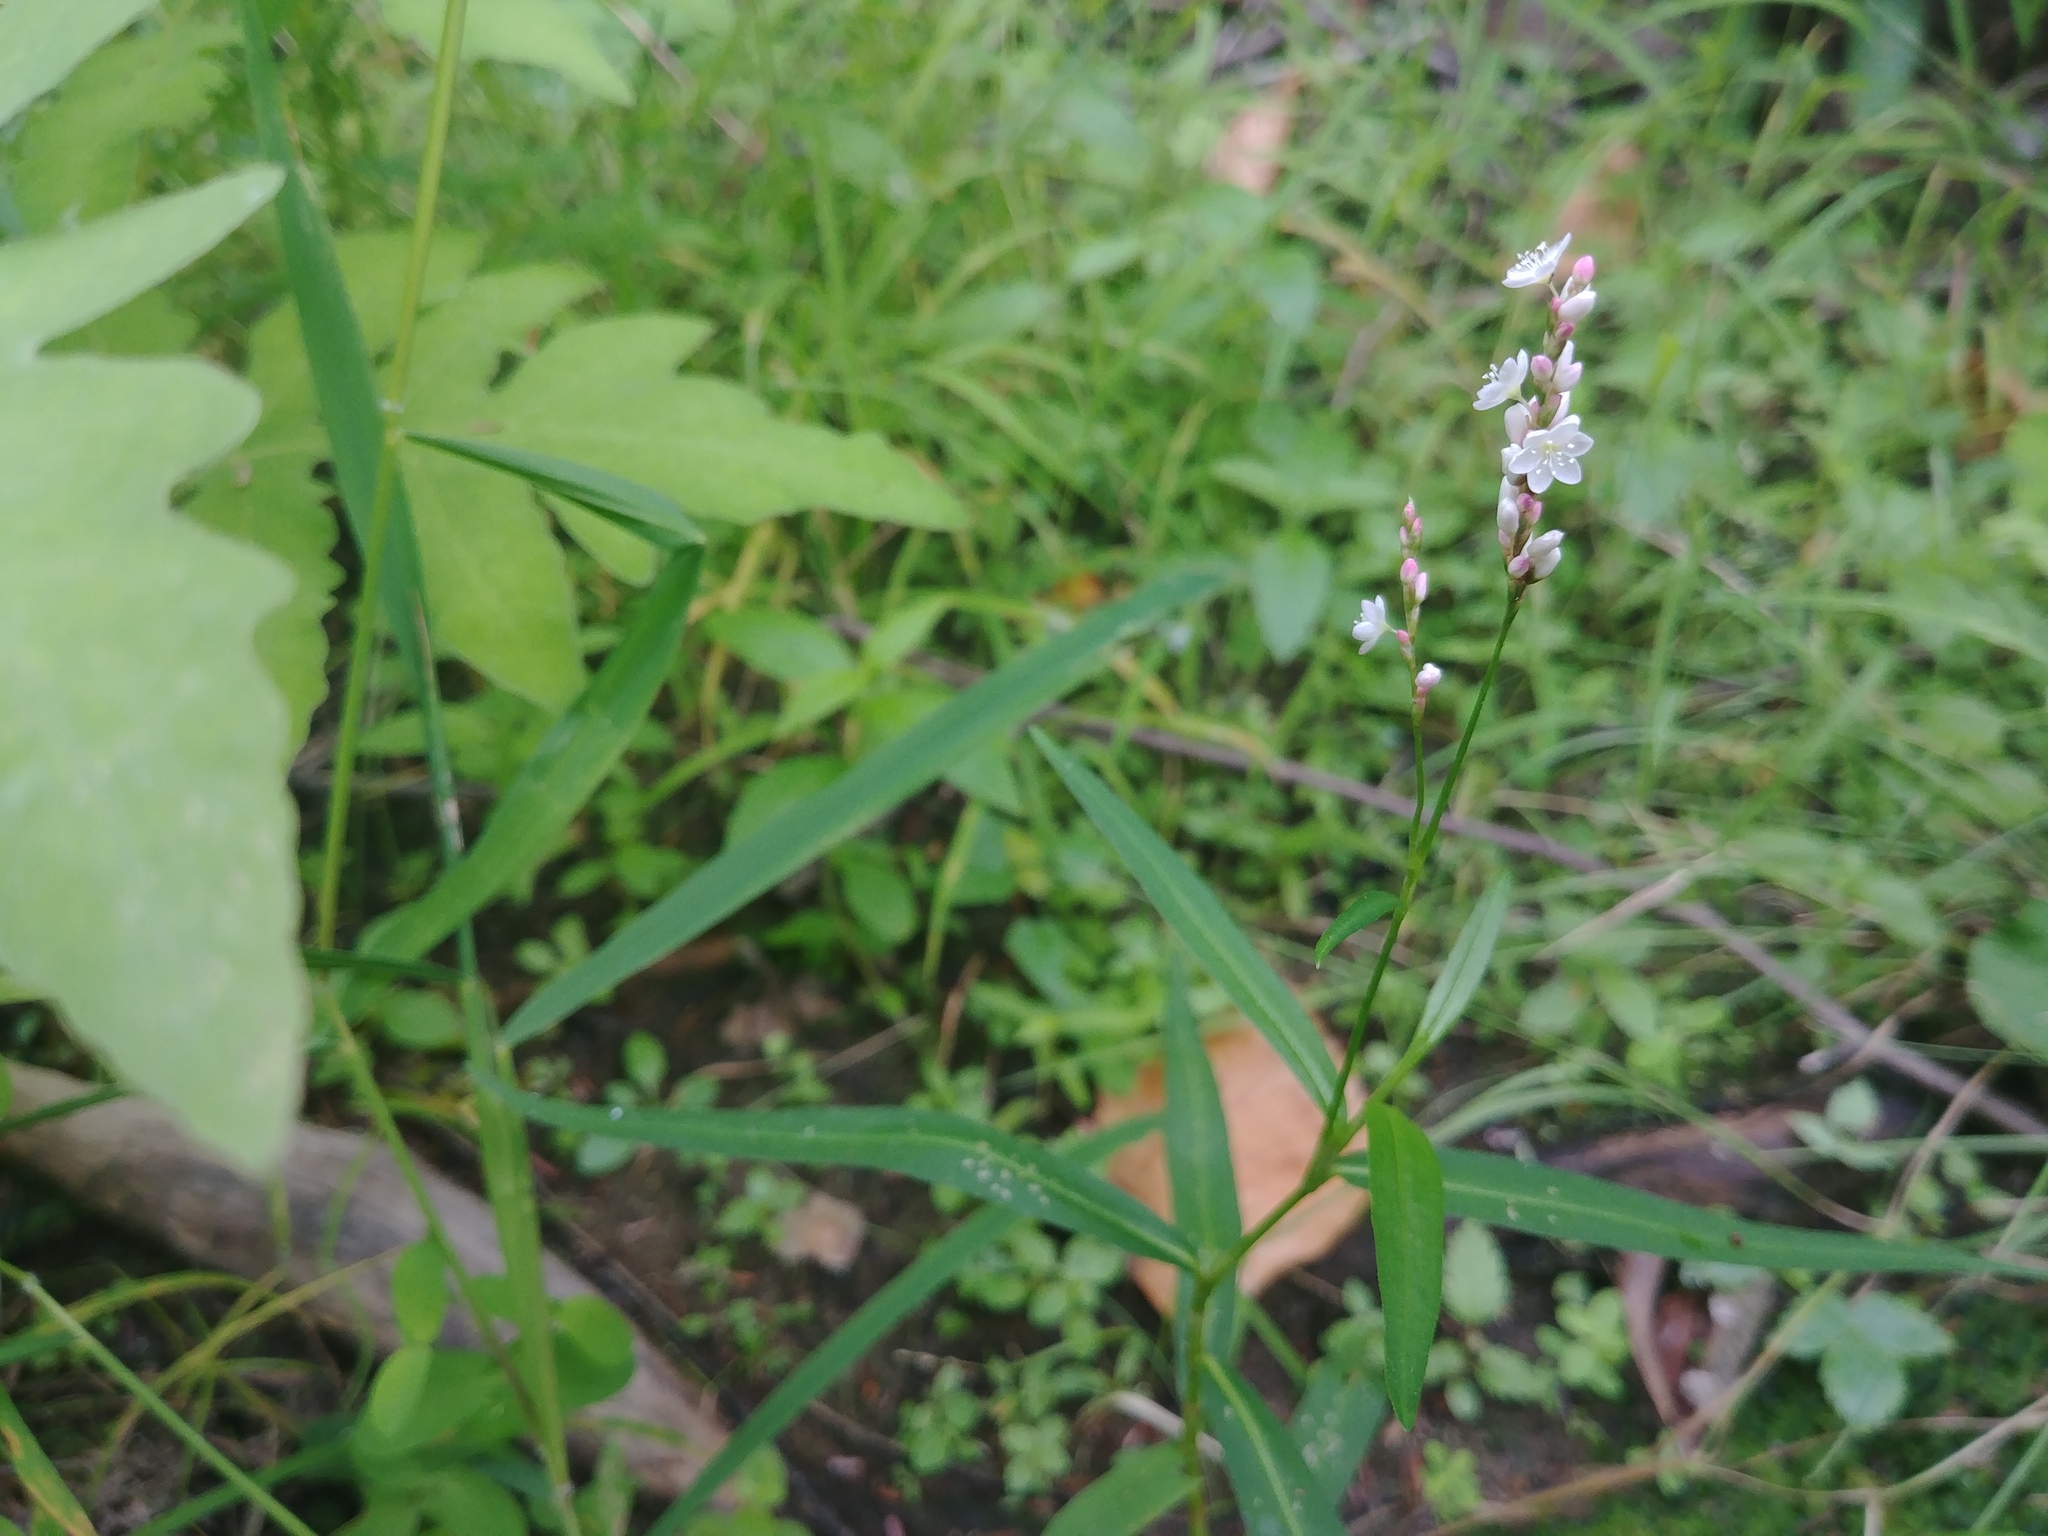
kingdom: Plantae
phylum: Tracheophyta
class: Magnoliopsida
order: Caryophyllales
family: Polygonaceae
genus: Persicaria
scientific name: Persicaria hydropiperoides
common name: Swamp smartweed
